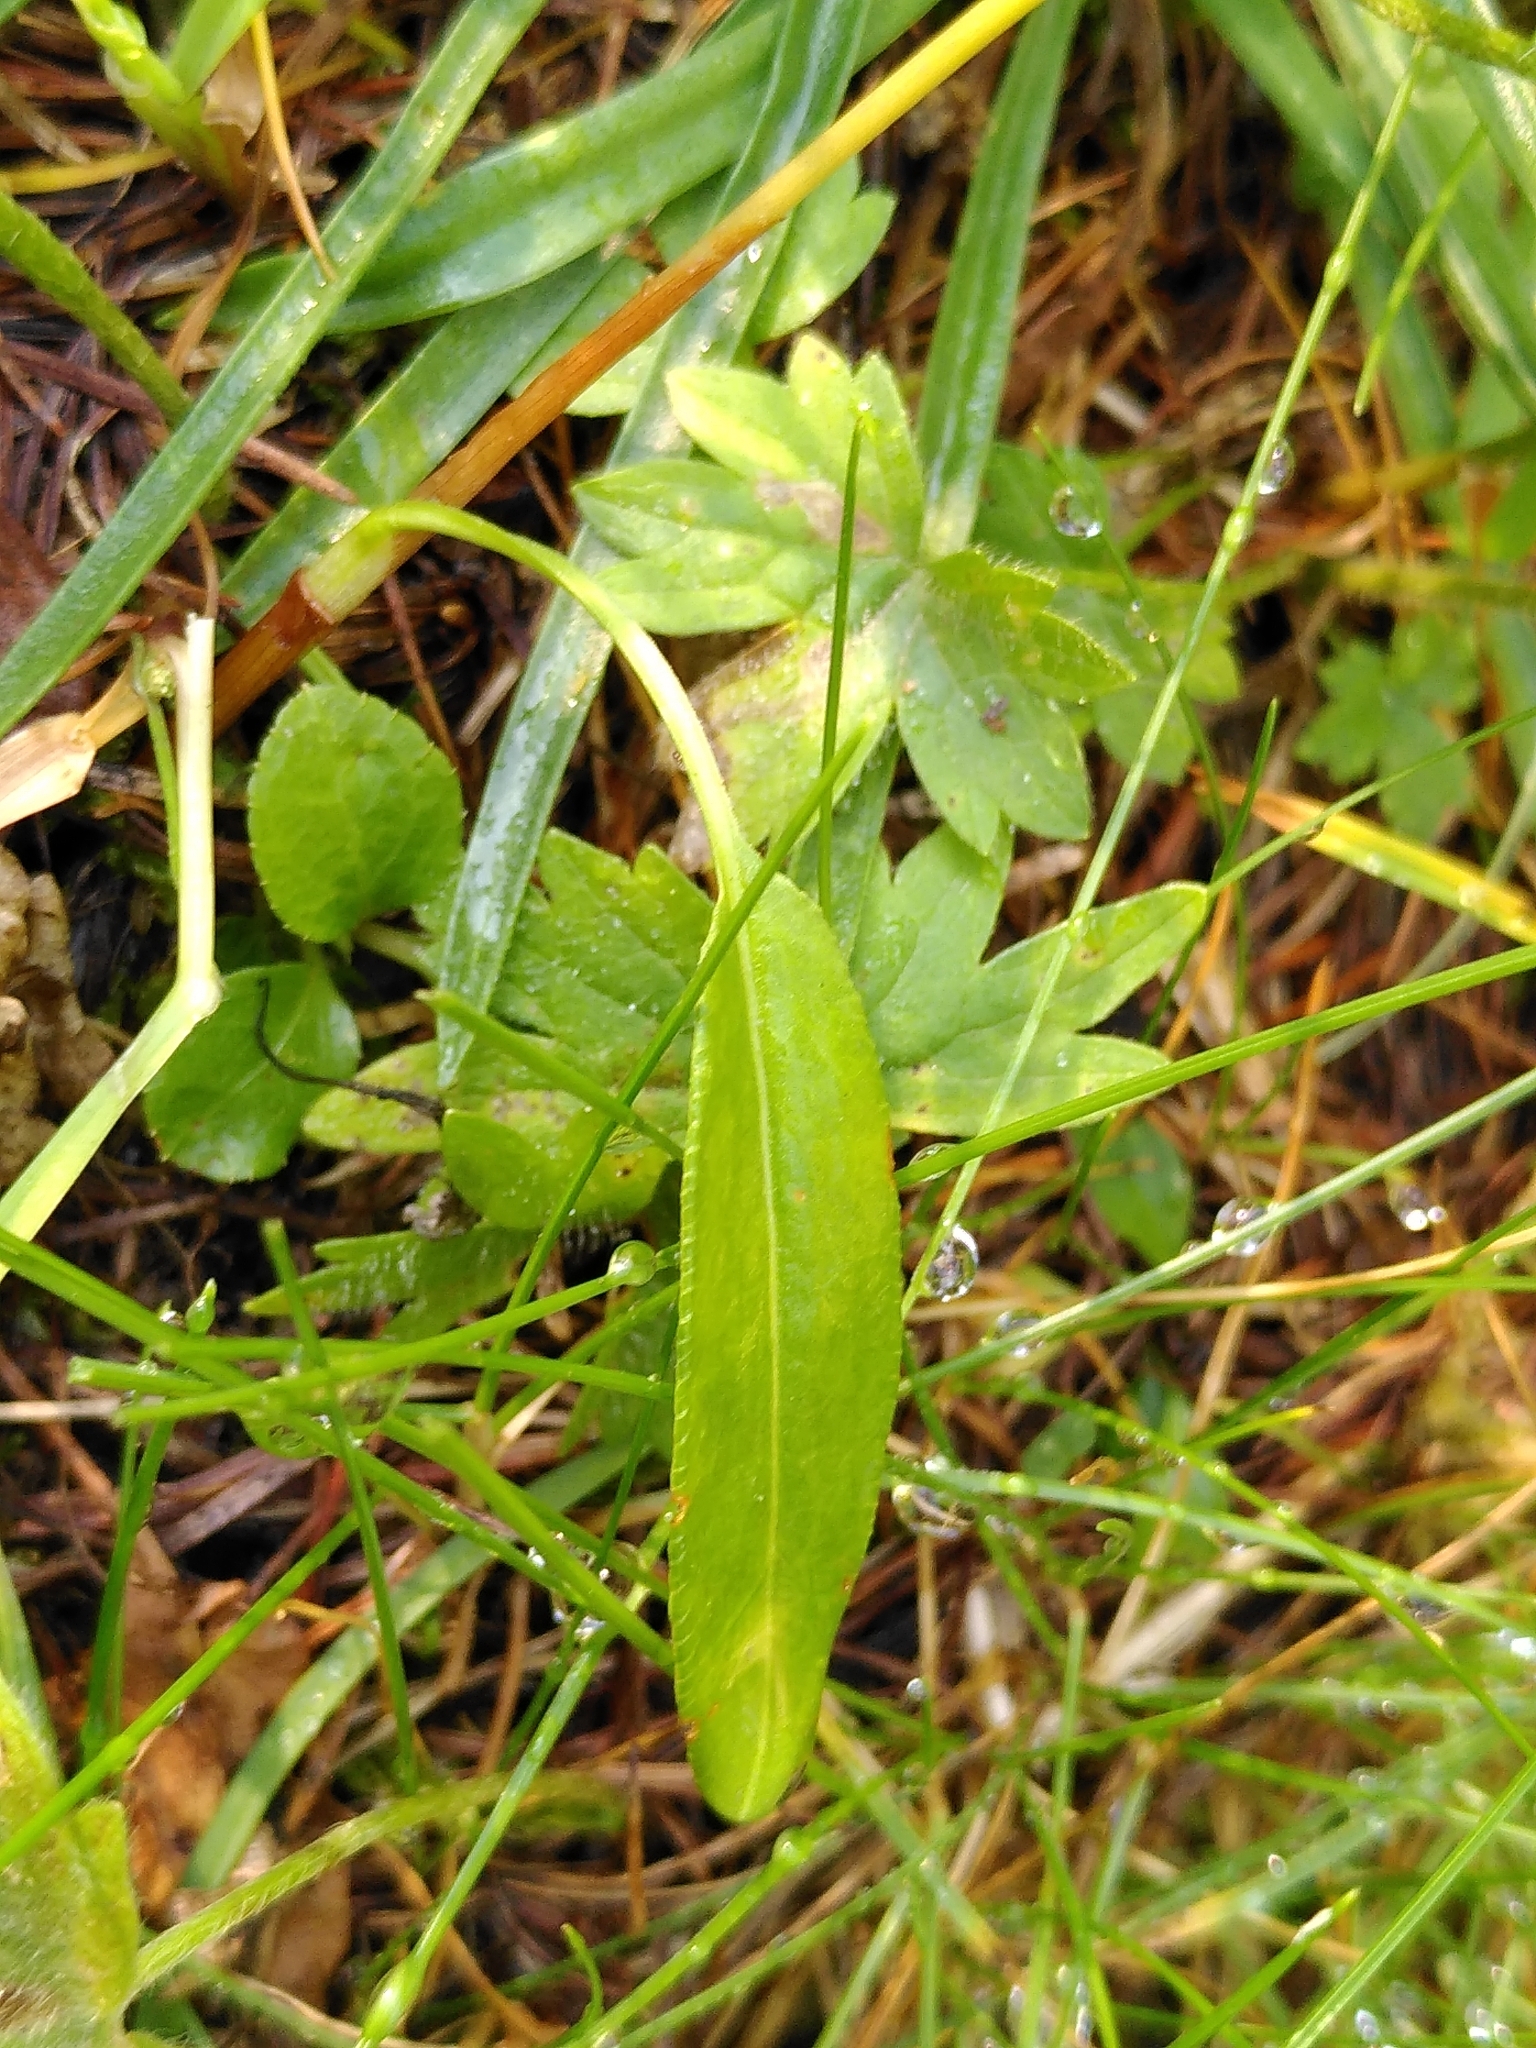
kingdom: Plantae
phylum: Tracheophyta
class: Magnoliopsida
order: Caryophyllales
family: Polygonaceae
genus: Bistorta
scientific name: Bistorta vivipara
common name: Alpine bistort
